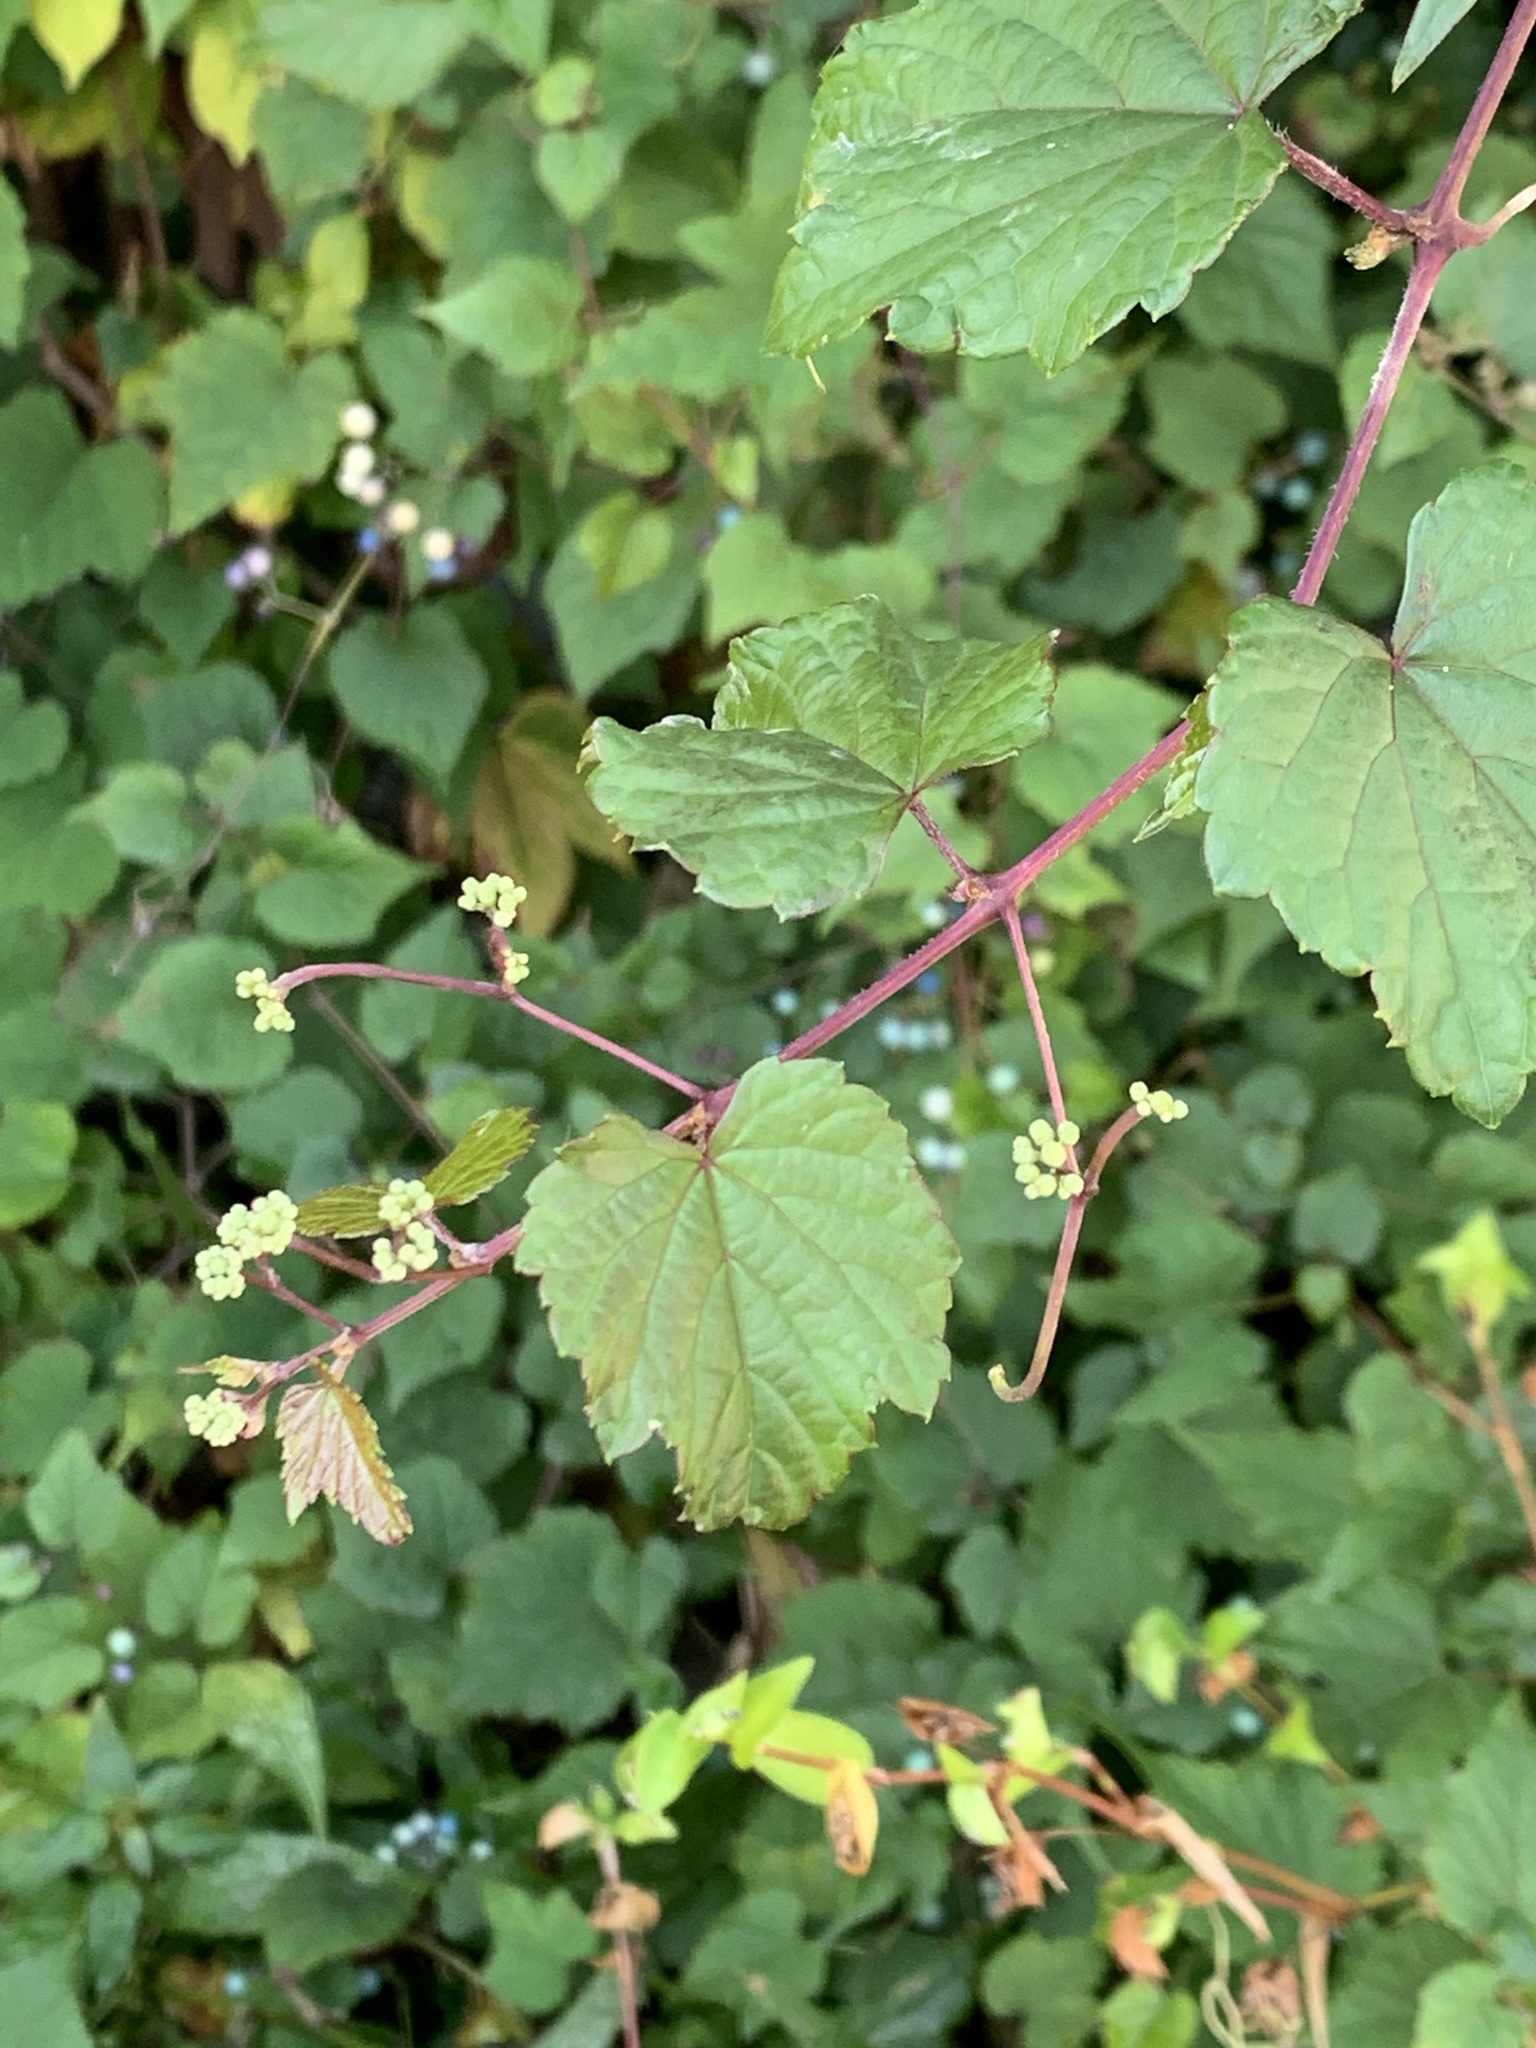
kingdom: Plantae
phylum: Tracheophyta
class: Magnoliopsida
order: Vitales
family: Vitaceae
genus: Ampelopsis
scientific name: Ampelopsis glandulosa
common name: Amur peppervine
